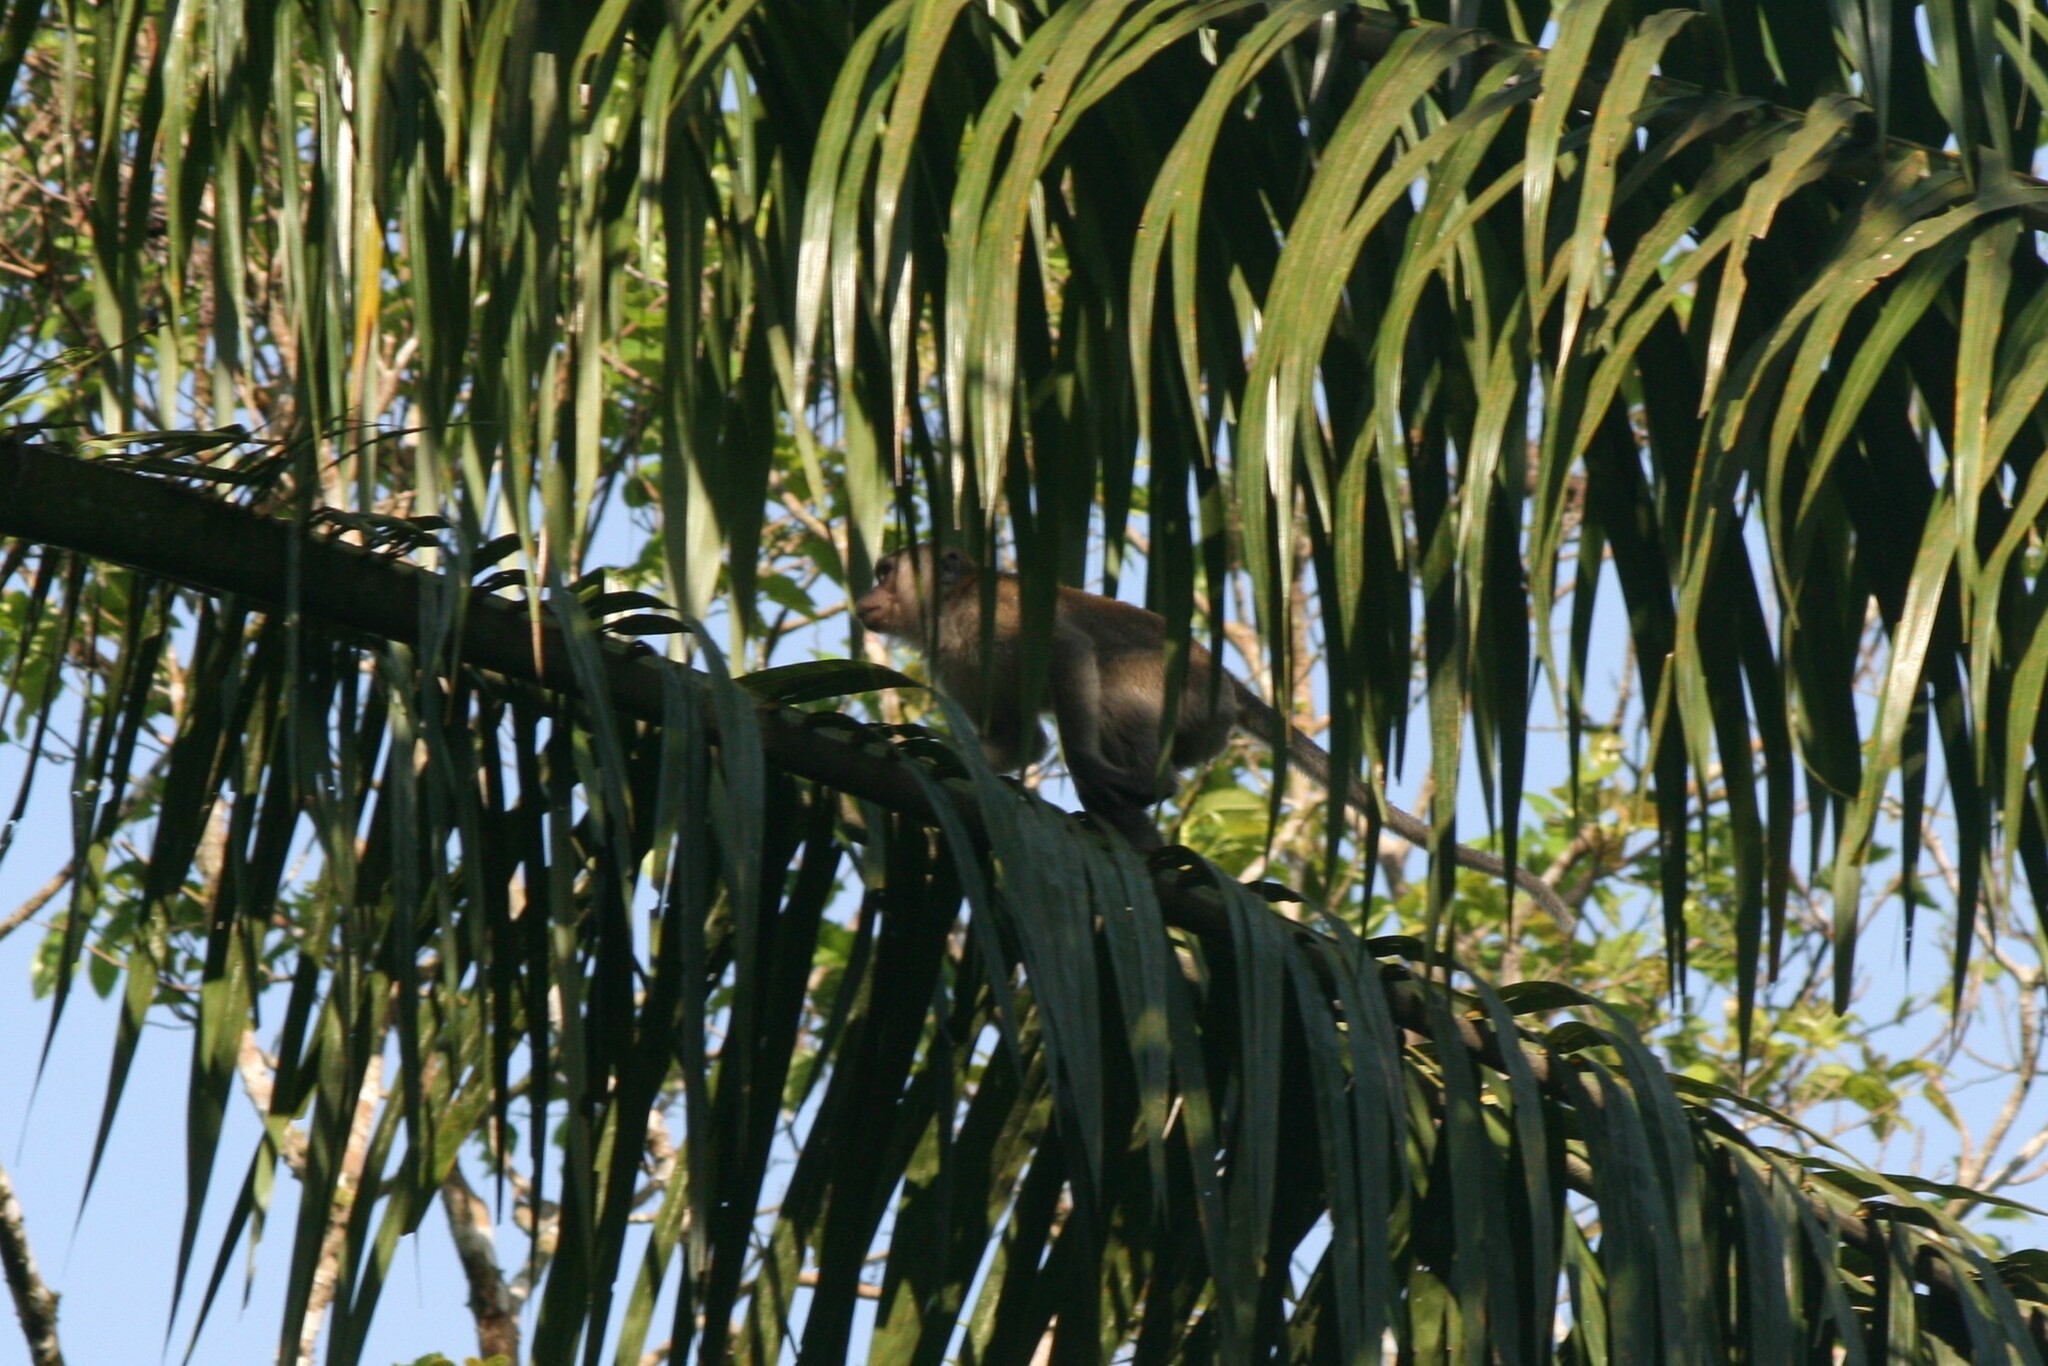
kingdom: Animalia
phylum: Chordata
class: Mammalia
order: Primates
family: Cercopithecidae
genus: Macaca
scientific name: Macaca fascicularis
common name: Crab-eating macaque
